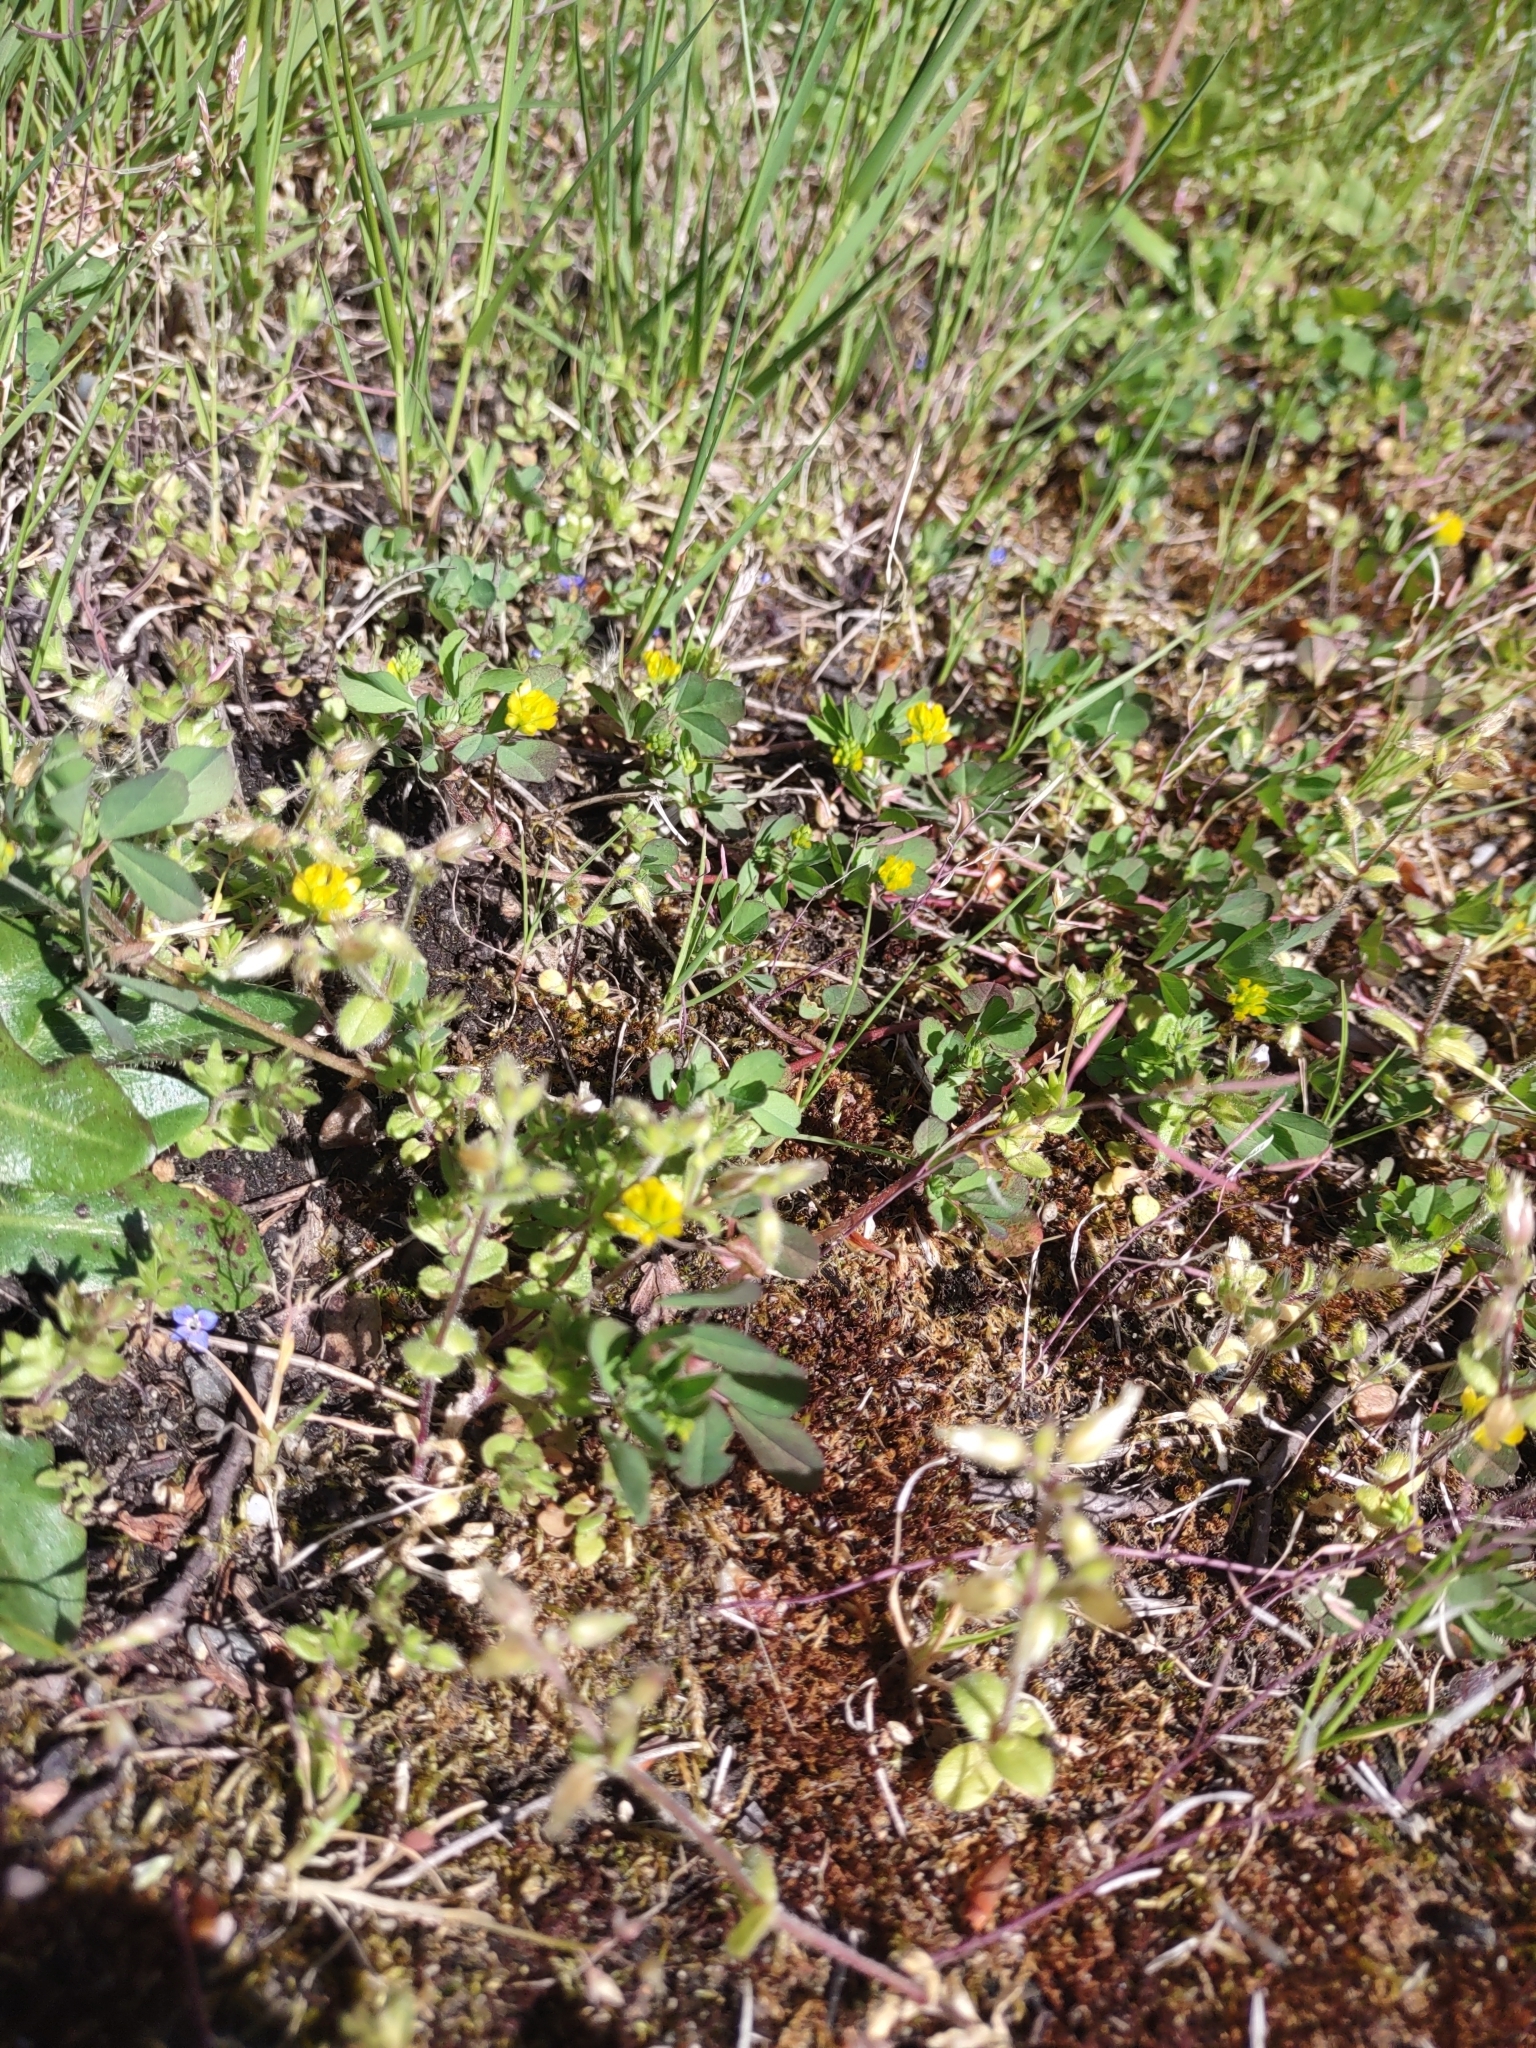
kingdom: Plantae
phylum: Tracheophyta
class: Magnoliopsida
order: Fabales
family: Fabaceae
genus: Trifolium
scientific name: Trifolium dubium
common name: Suckling clover
